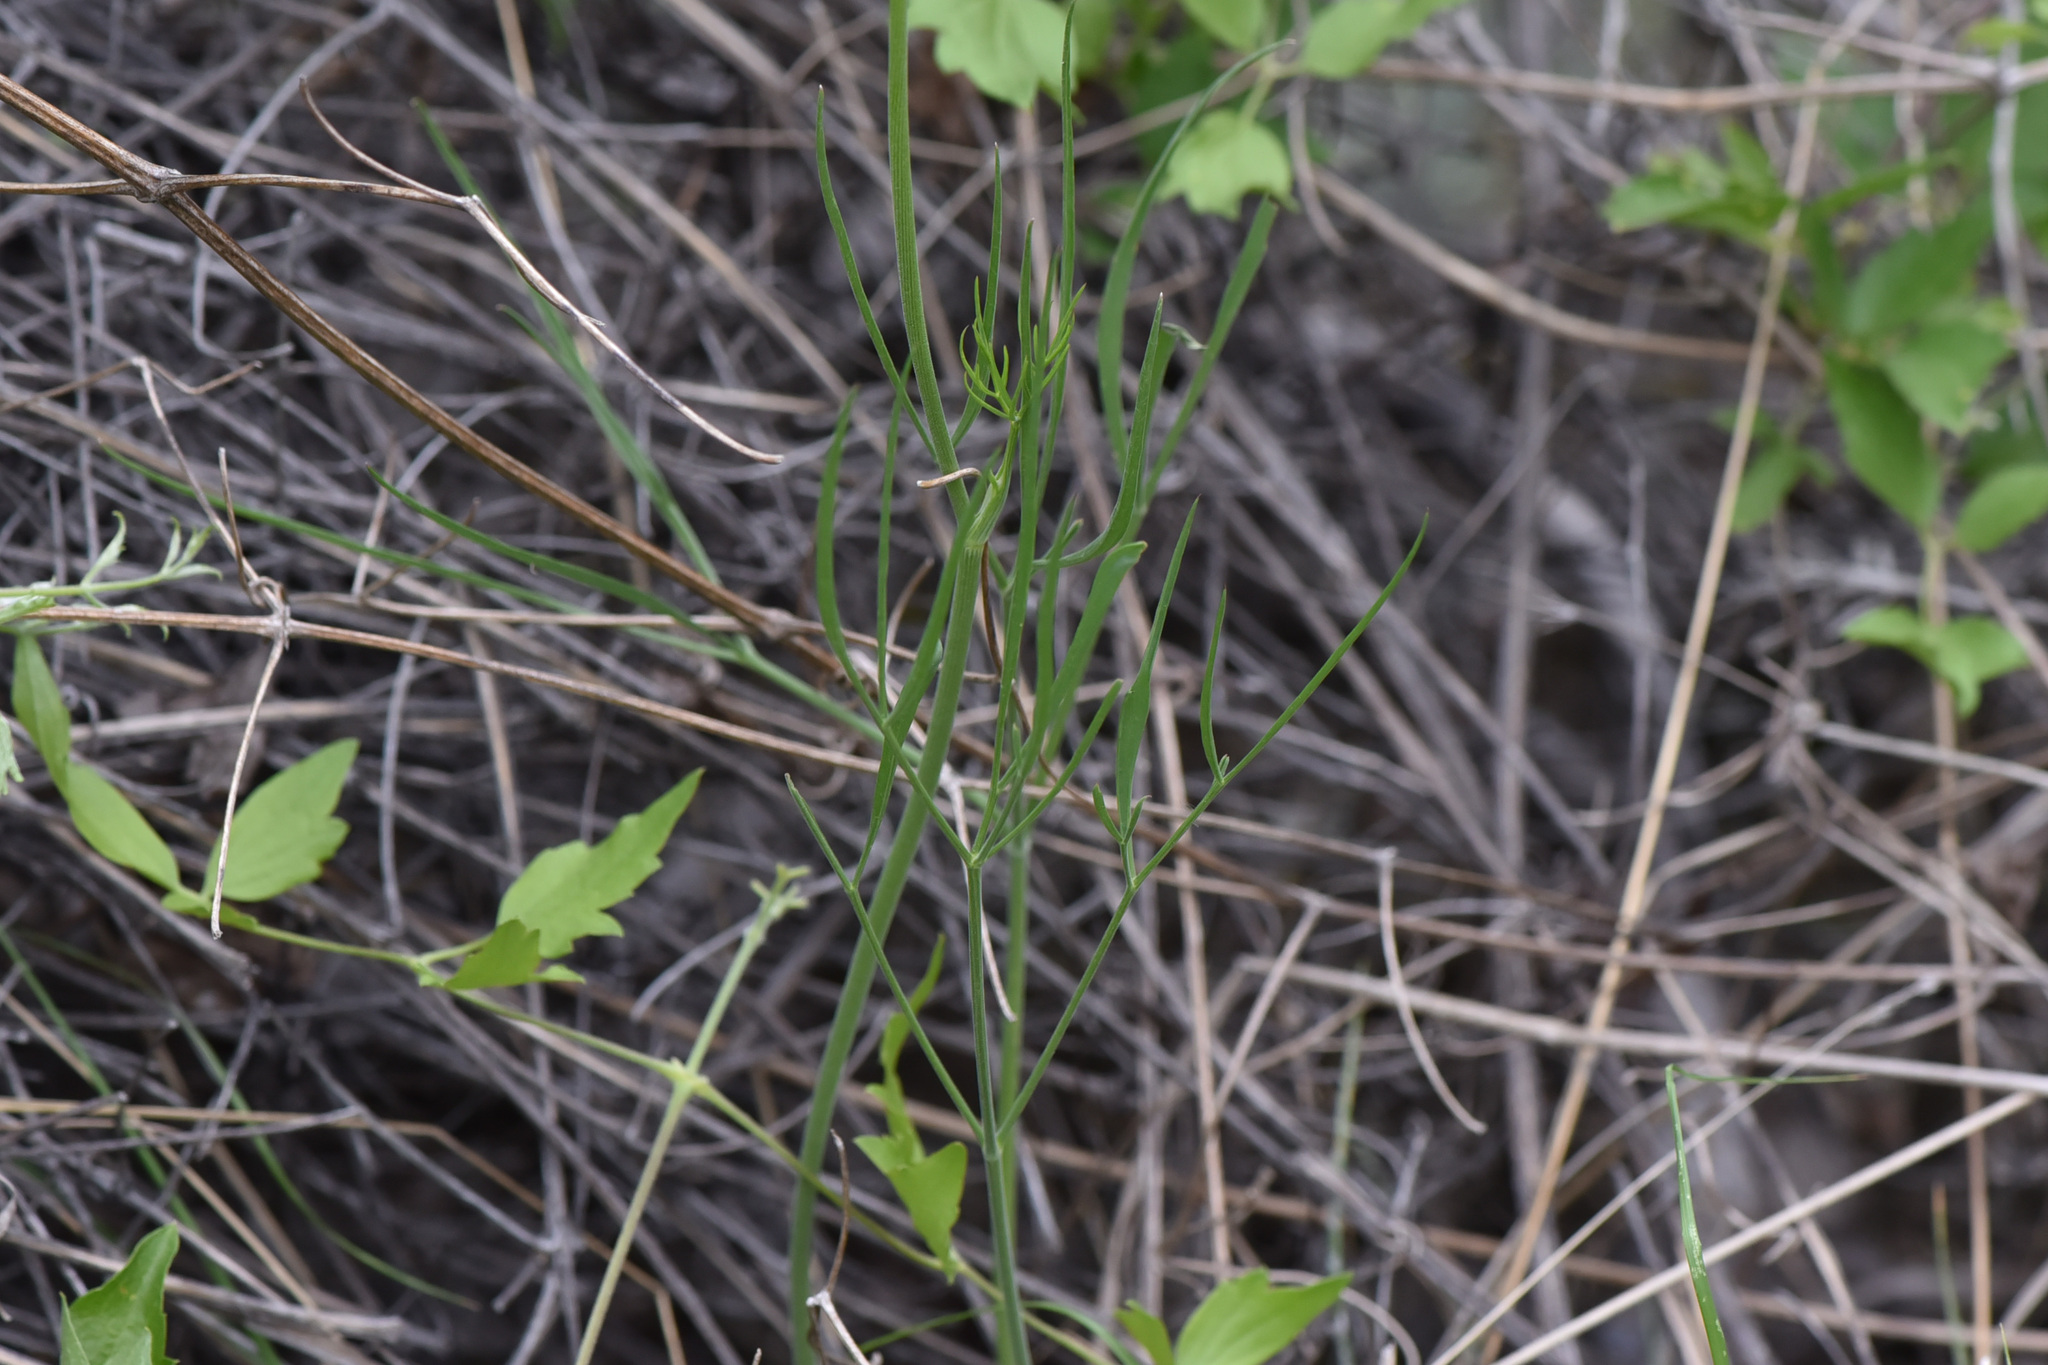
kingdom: Plantae
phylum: Tracheophyta
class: Magnoliopsida
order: Apiales
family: Apiaceae
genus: Lomatium
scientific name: Lomatium triternatum
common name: Ternate lomatium
